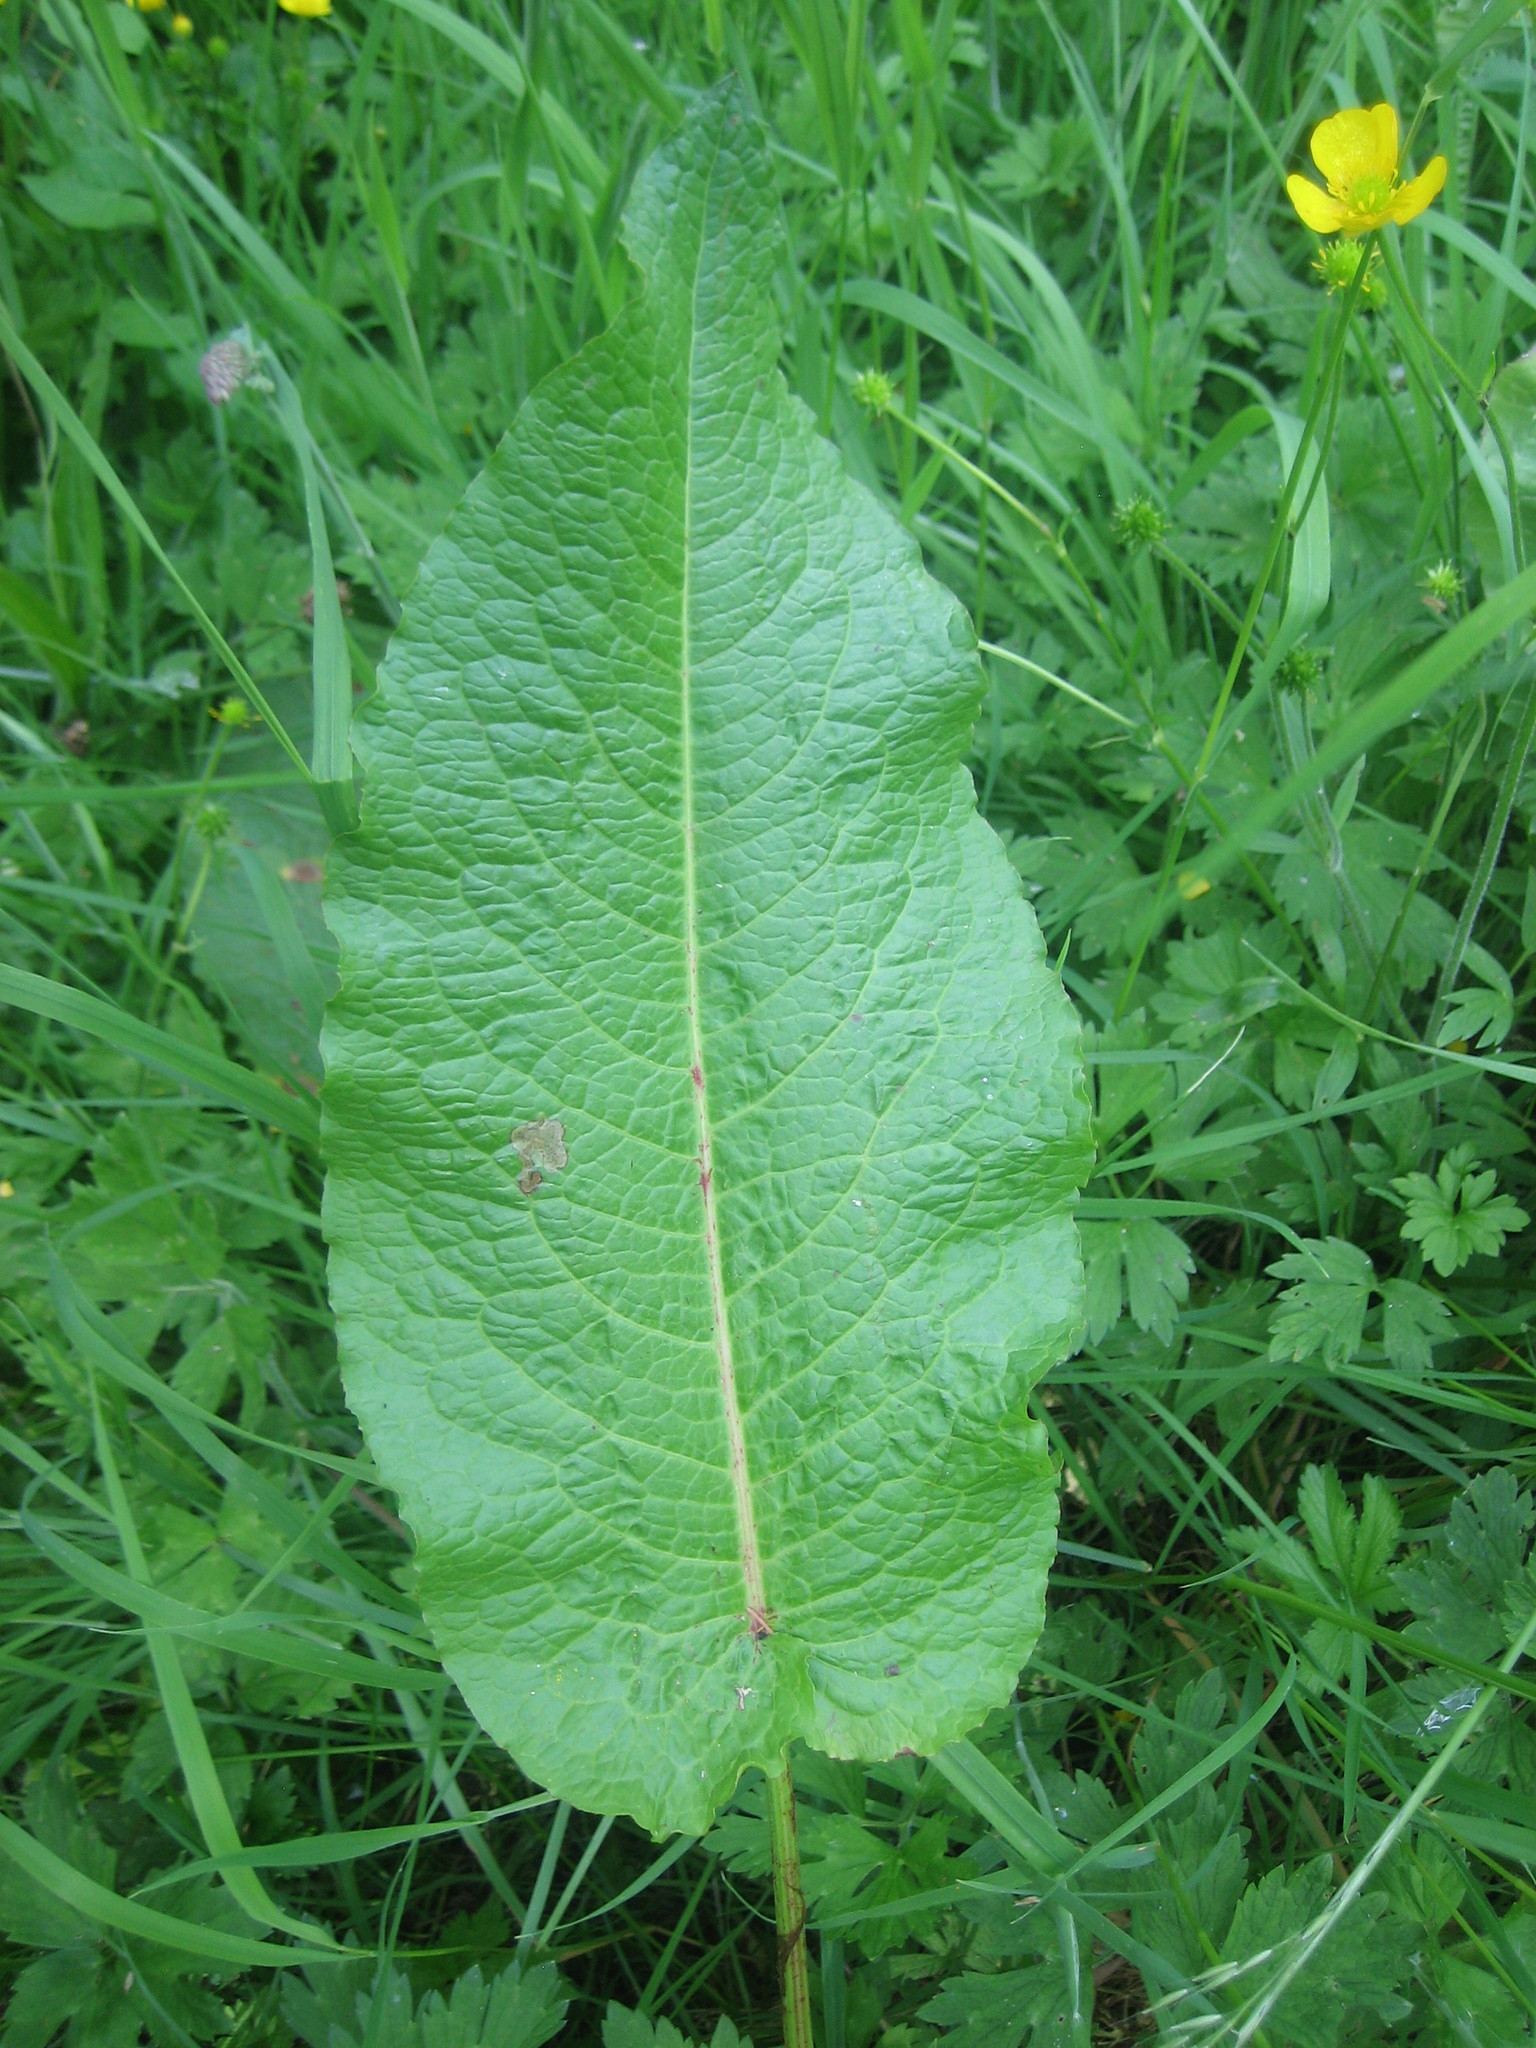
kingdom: Plantae
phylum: Tracheophyta
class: Magnoliopsida
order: Caryophyllales
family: Polygonaceae
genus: Rumex
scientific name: Rumex obtusifolius
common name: Bitter dock
